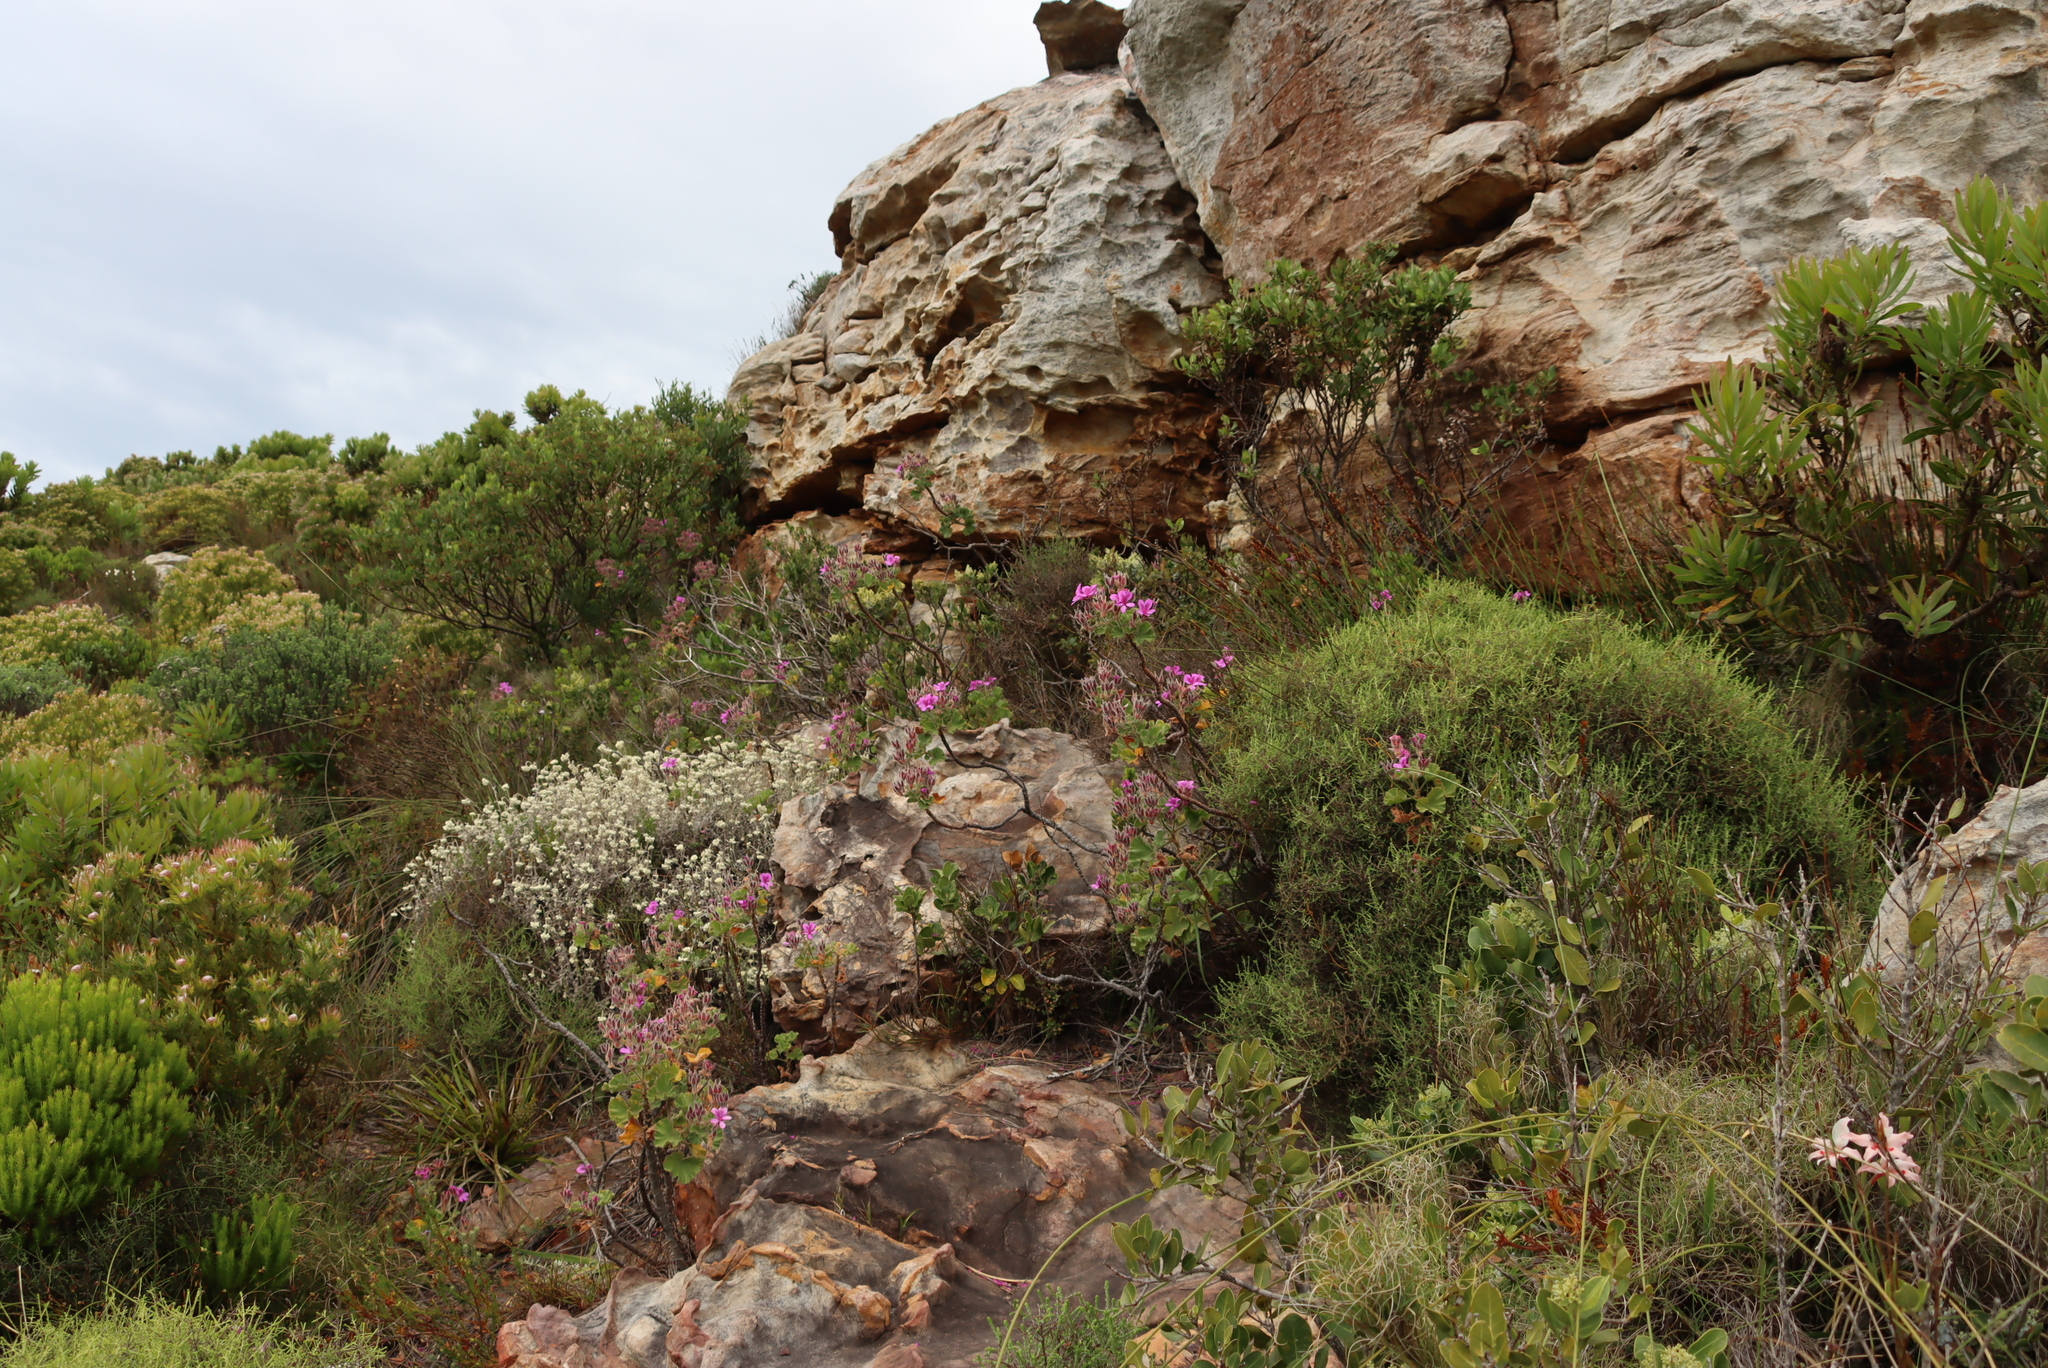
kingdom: Plantae
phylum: Tracheophyta
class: Magnoliopsida
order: Geraniales
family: Geraniaceae
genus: Pelargonium
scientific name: Pelargonium cucullatum
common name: Tree pelargonium
